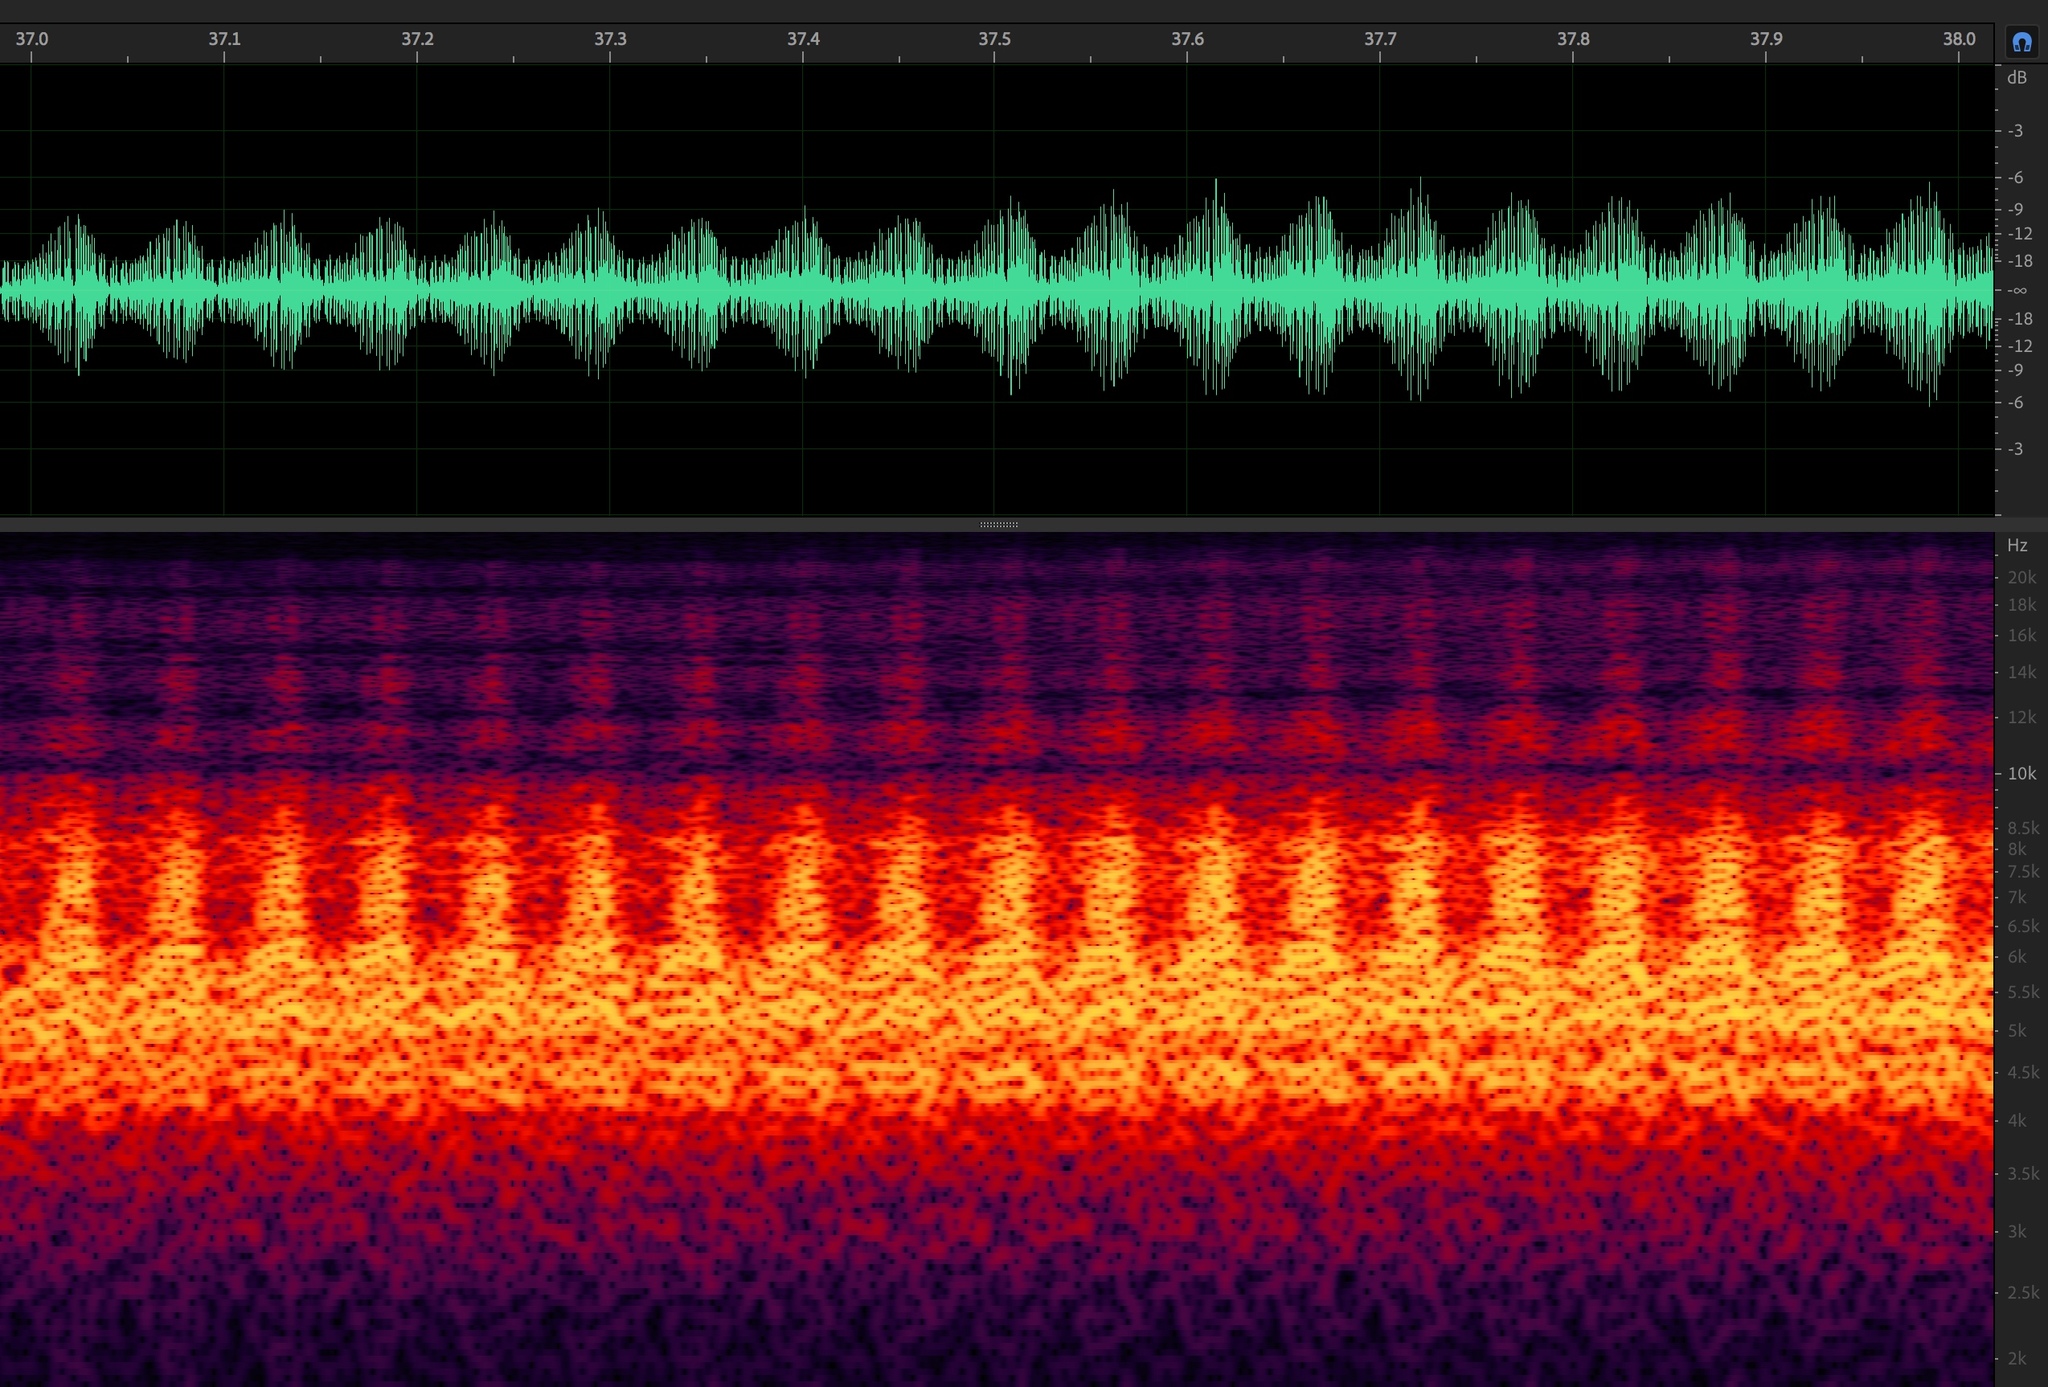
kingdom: Animalia
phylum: Arthropoda
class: Insecta
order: Hemiptera
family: Cicadidae
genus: Megatibicen
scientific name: Megatibicen harenosus
